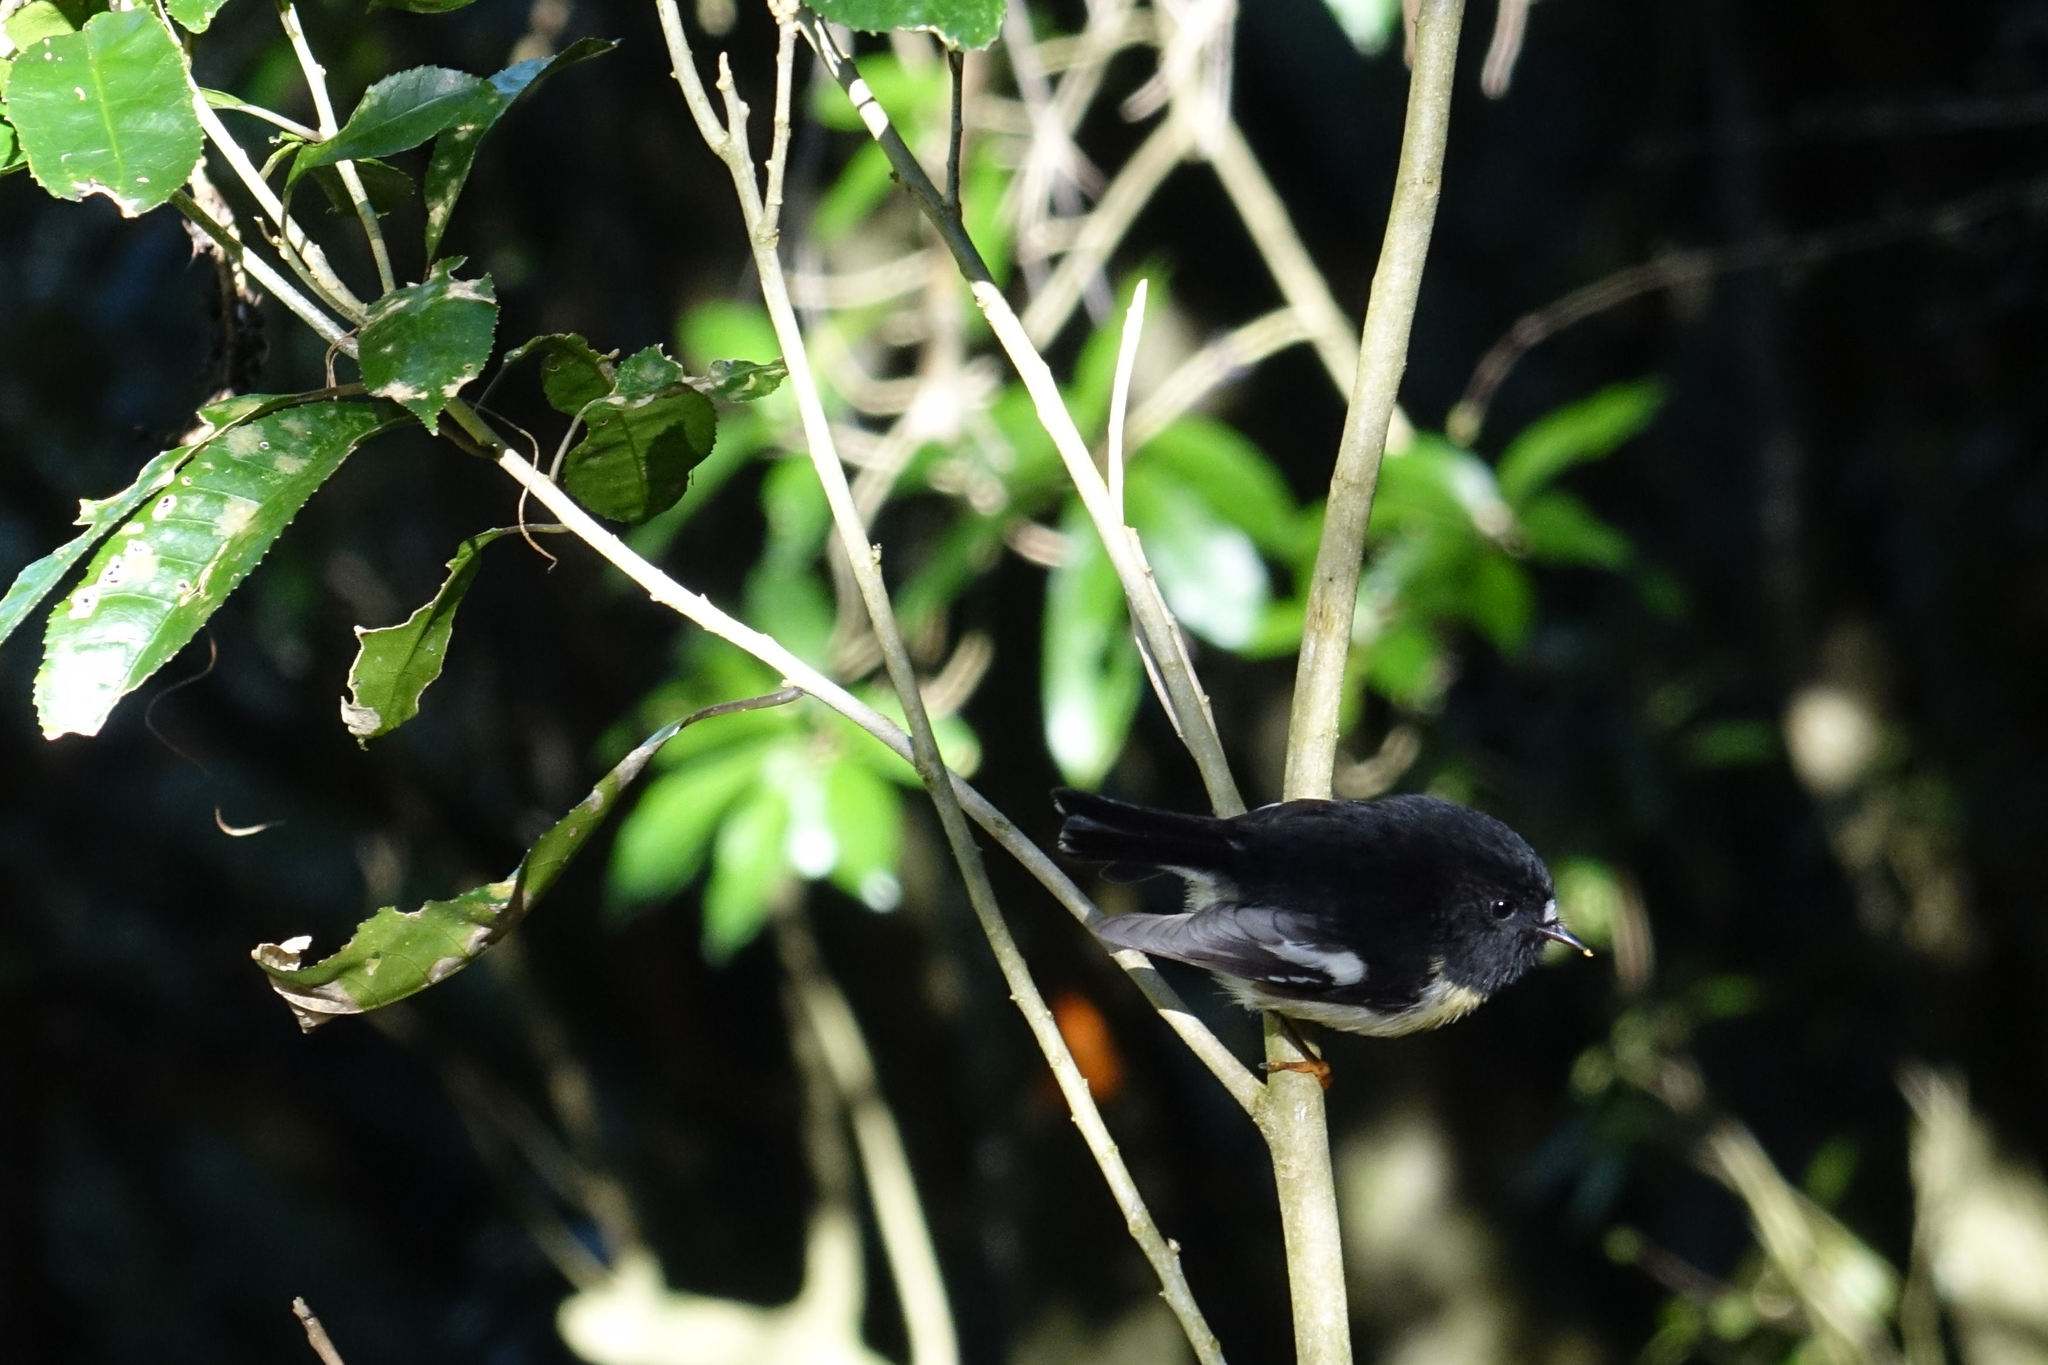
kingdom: Animalia
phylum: Chordata
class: Aves
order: Passeriformes
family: Petroicidae
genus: Petroica
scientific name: Petroica macrocephala
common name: Tomtit
